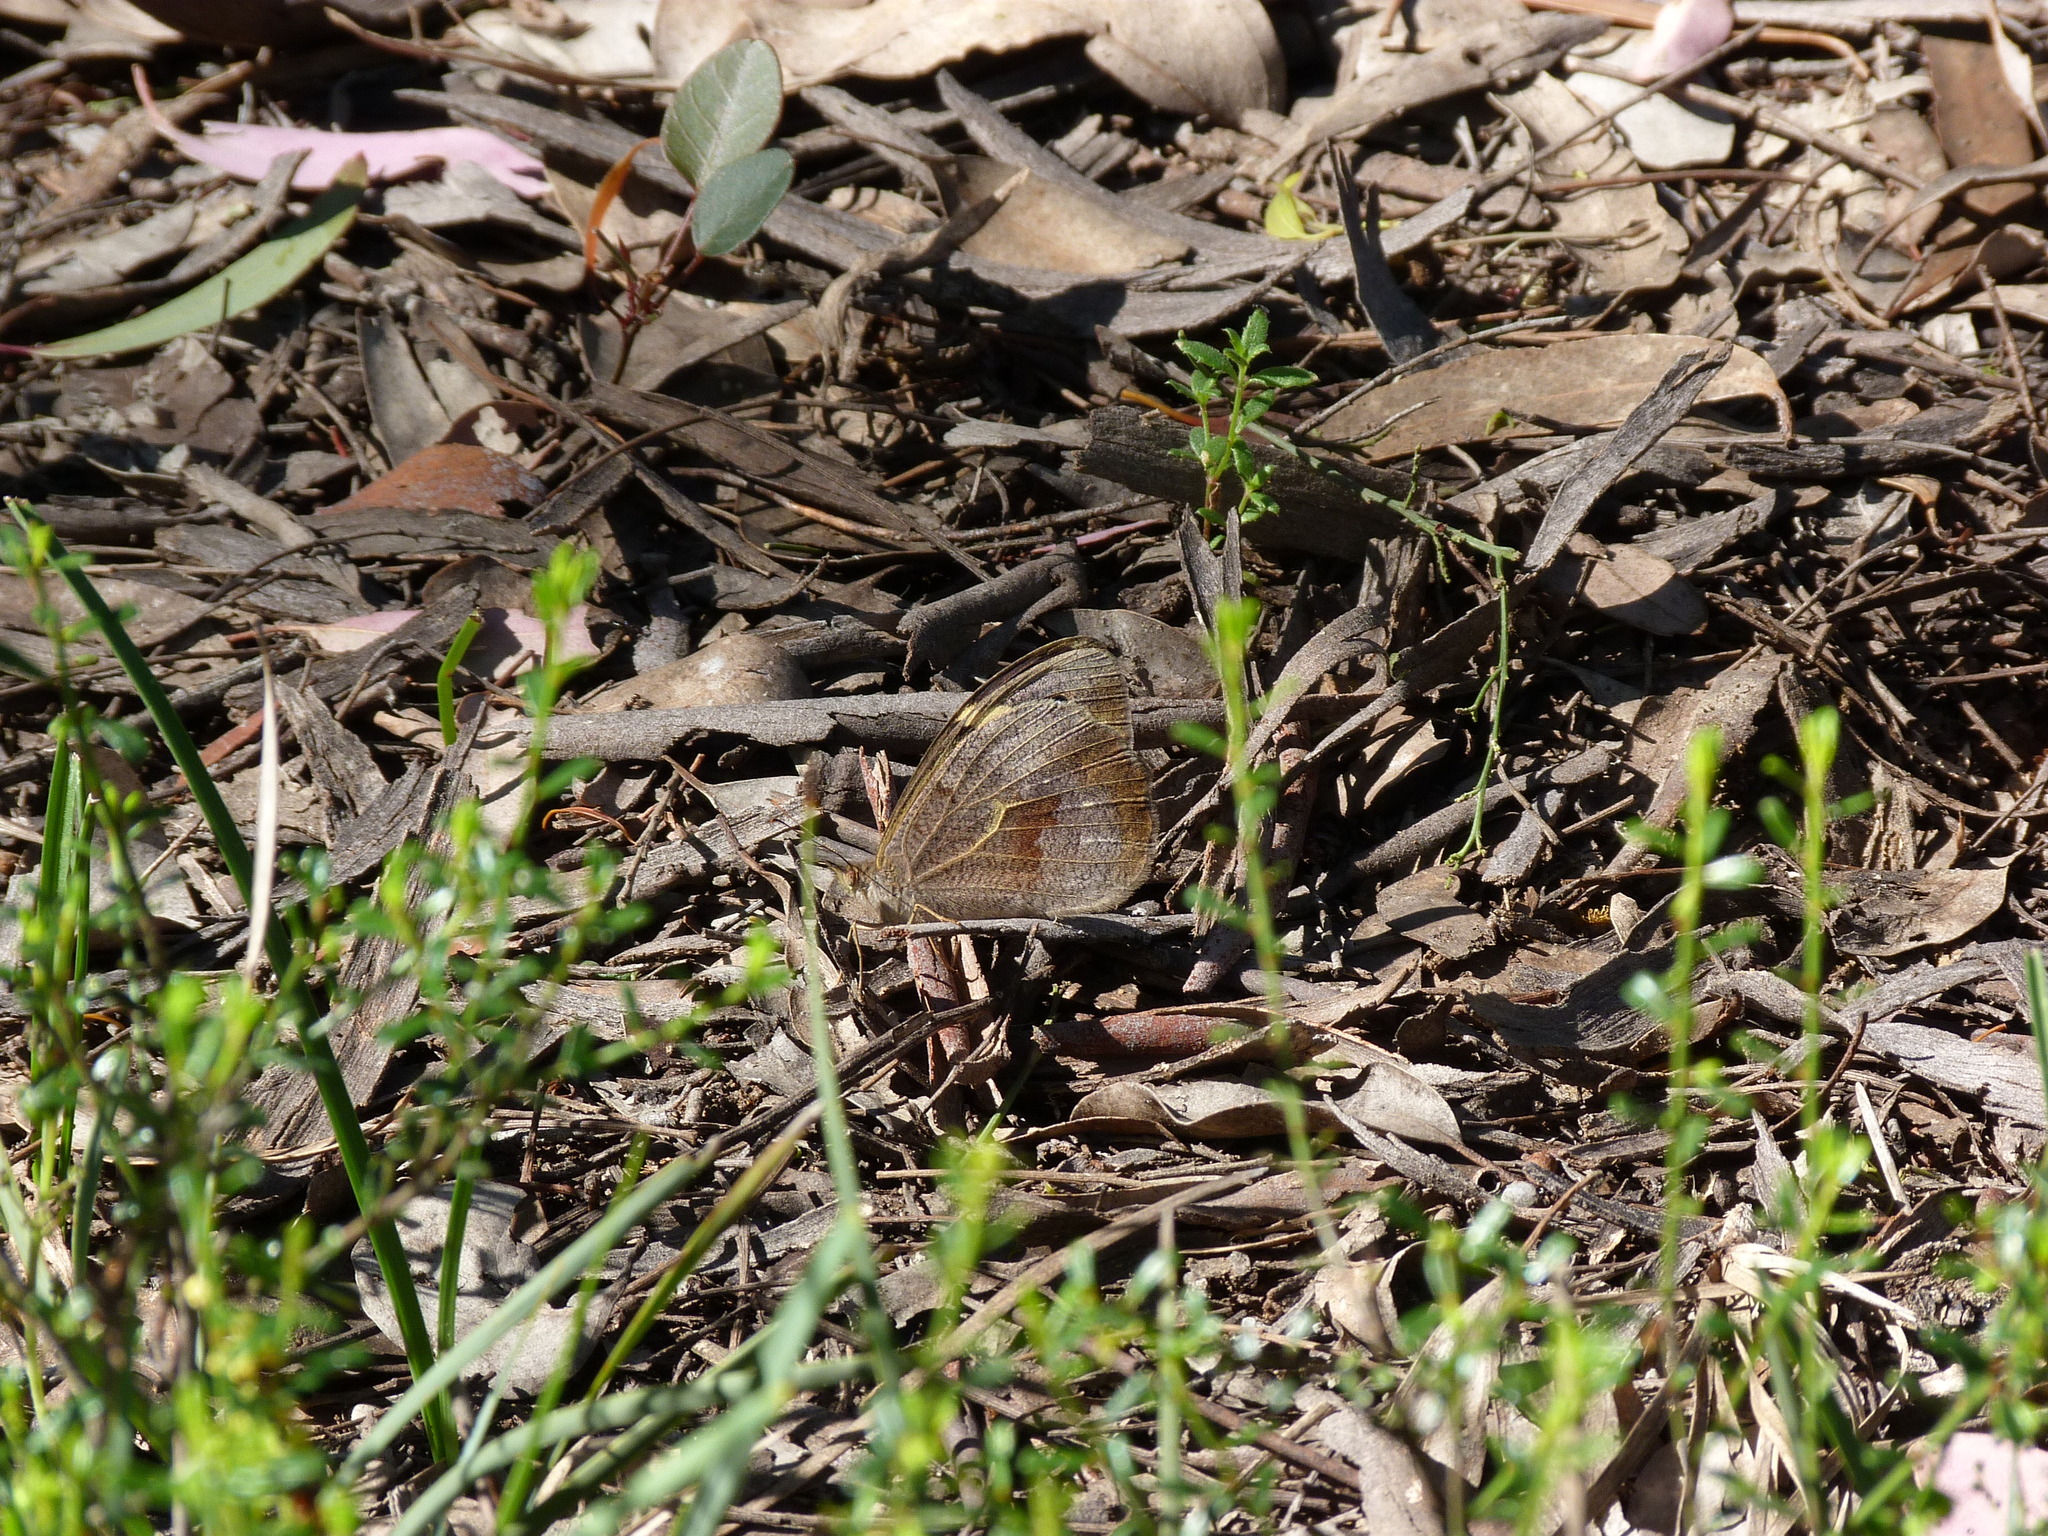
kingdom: Animalia
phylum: Arthropoda
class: Insecta
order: Lepidoptera
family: Nymphalidae
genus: Heteronympha
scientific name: Heteronympha merope
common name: Common brown
